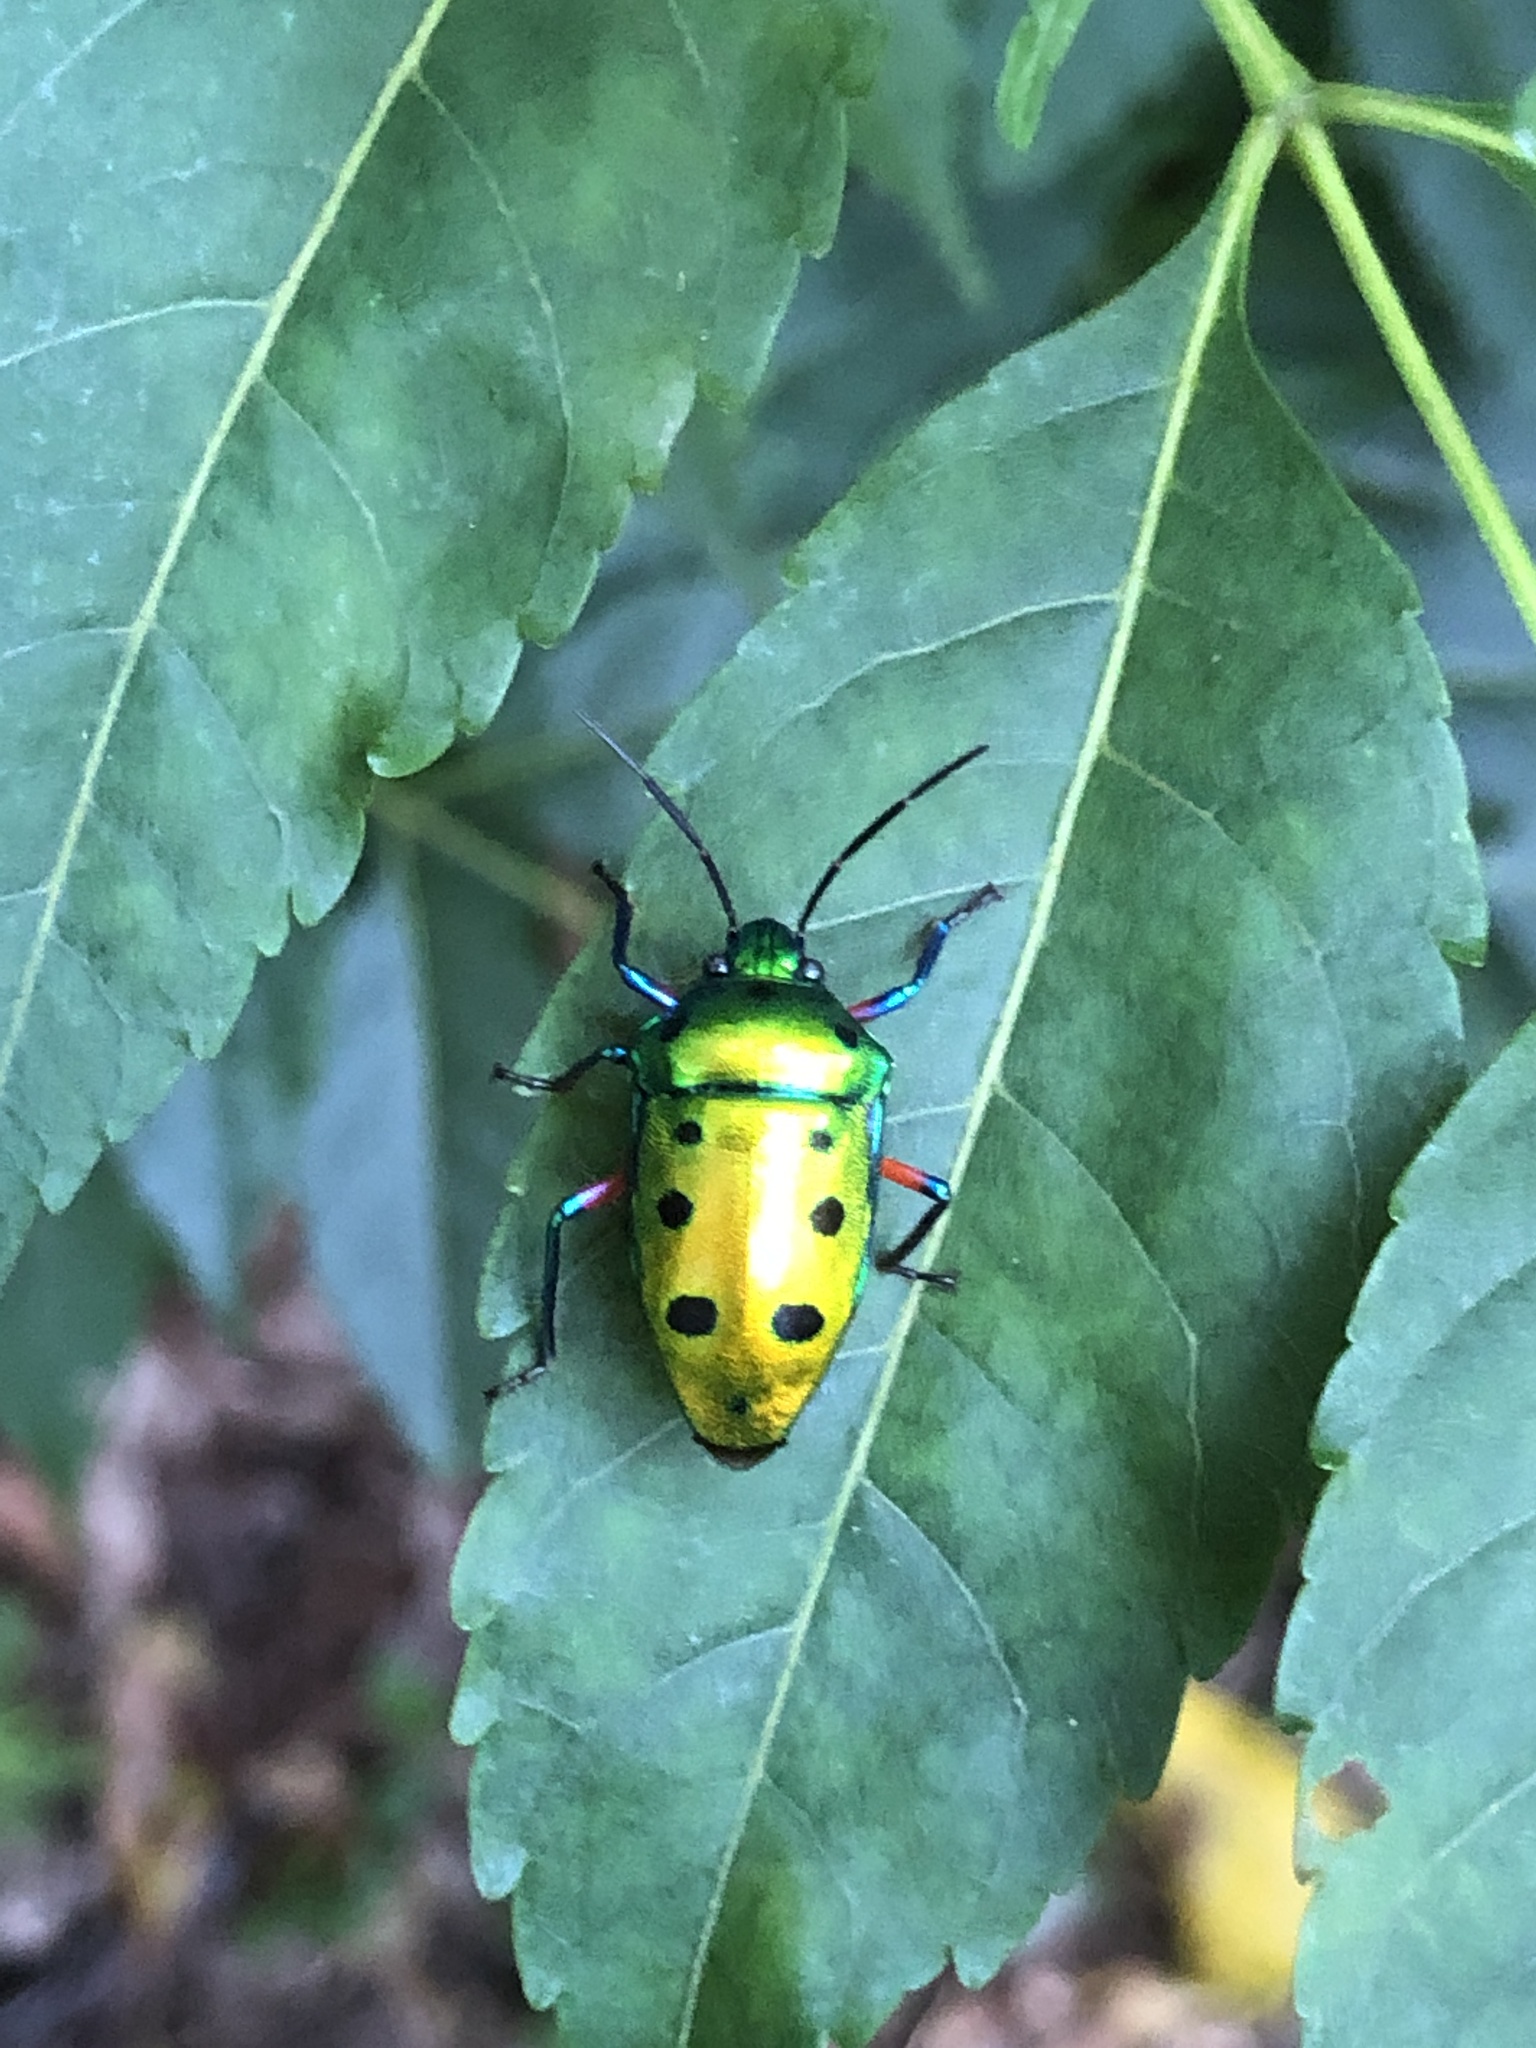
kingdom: Animalia
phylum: Arthropoda
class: Insecta
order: Hemiptera
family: Scutelleridae
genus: Calliphara
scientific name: Calliphara excellens
